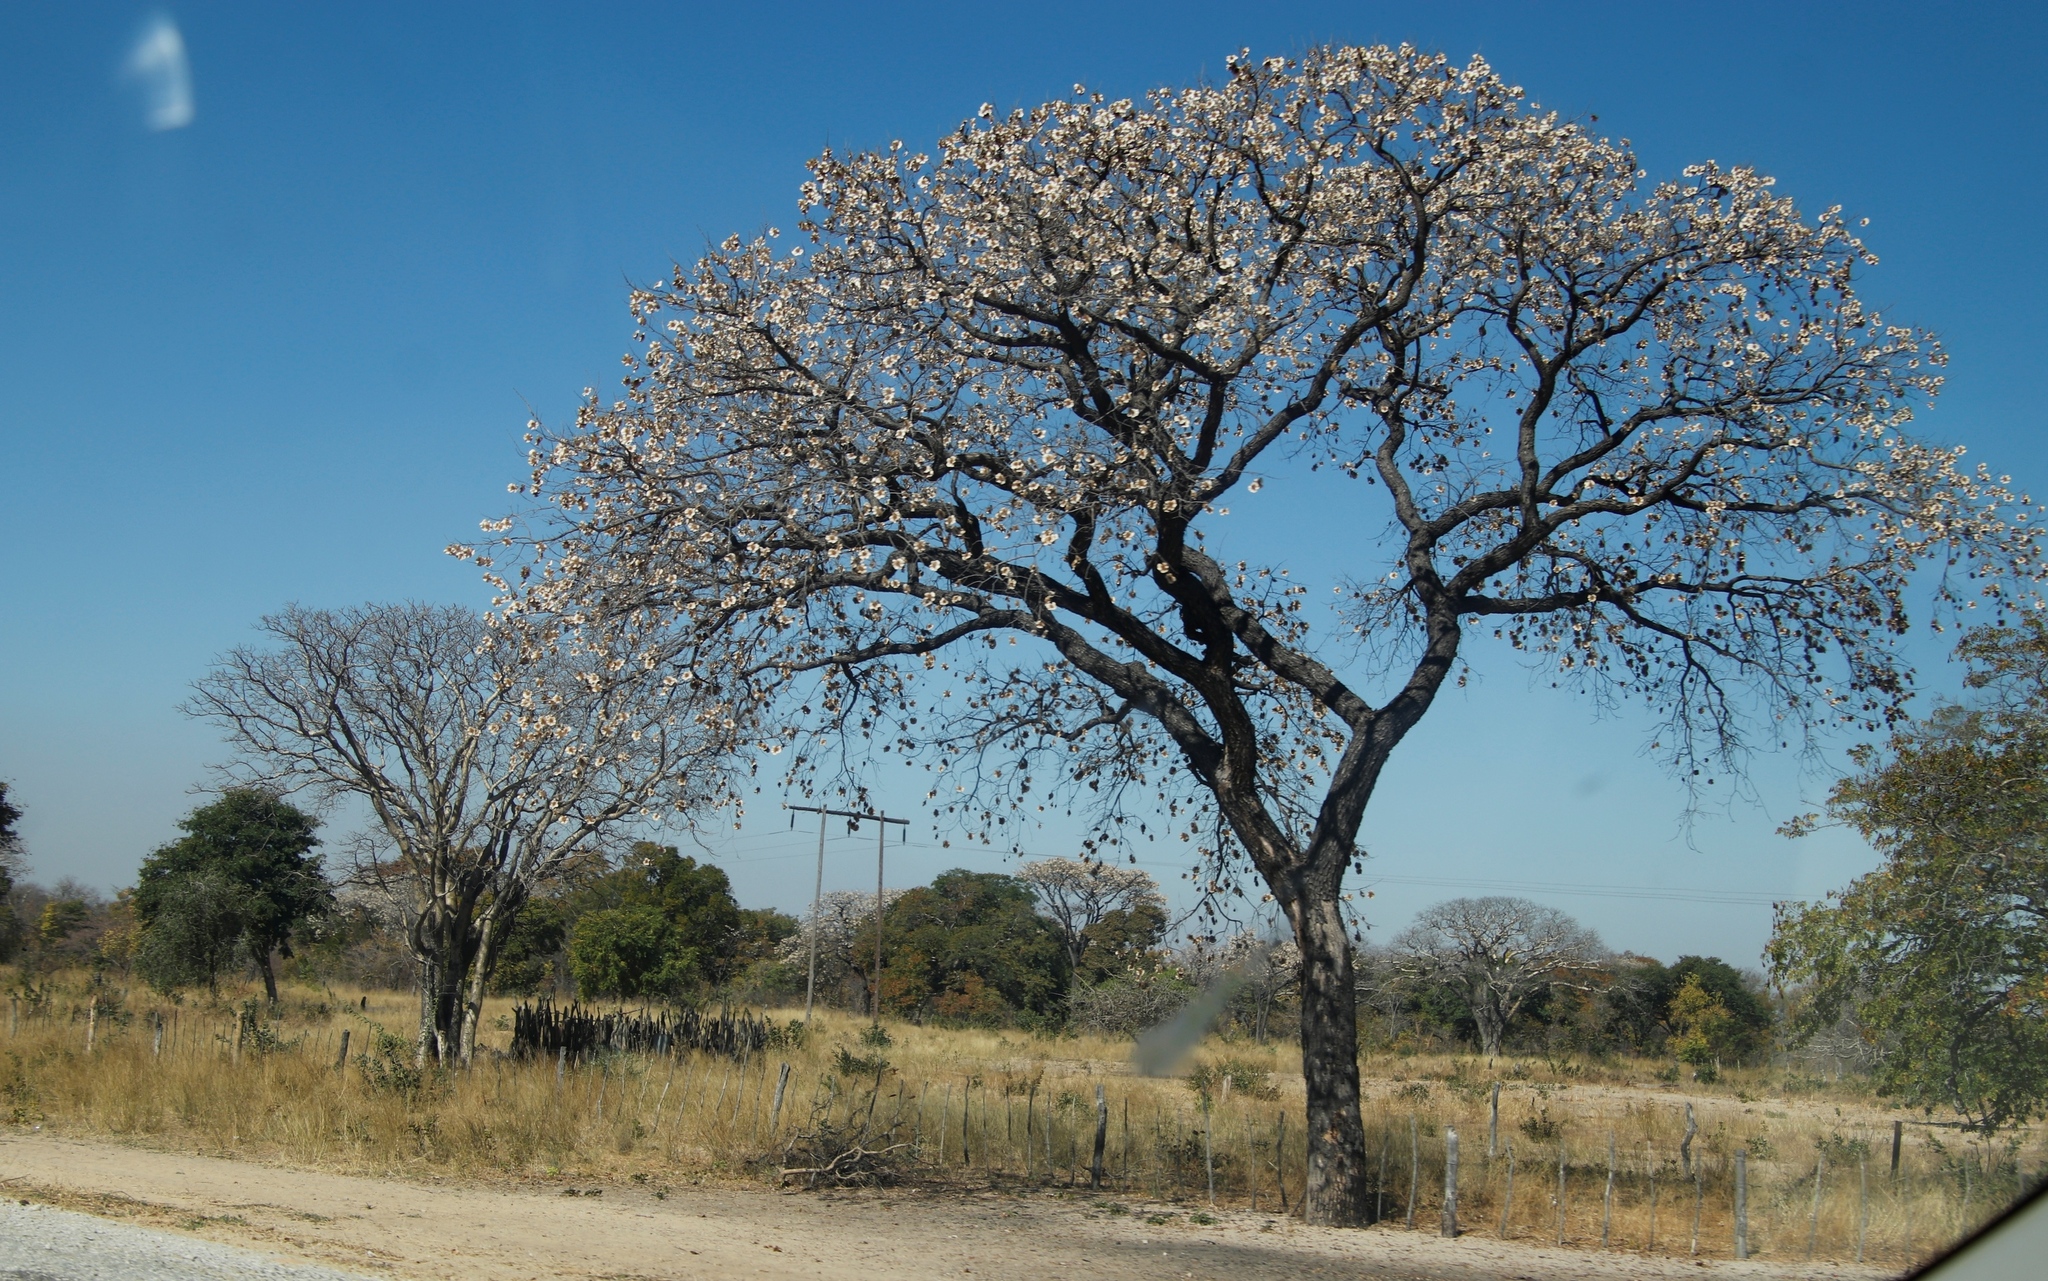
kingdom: Plantae
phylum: Tracheophyta
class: Magnoliopsida
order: Fabales
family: Fabaceae
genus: Pterocarpus
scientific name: Pterocarpus angolensis
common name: Bloodwood tree
